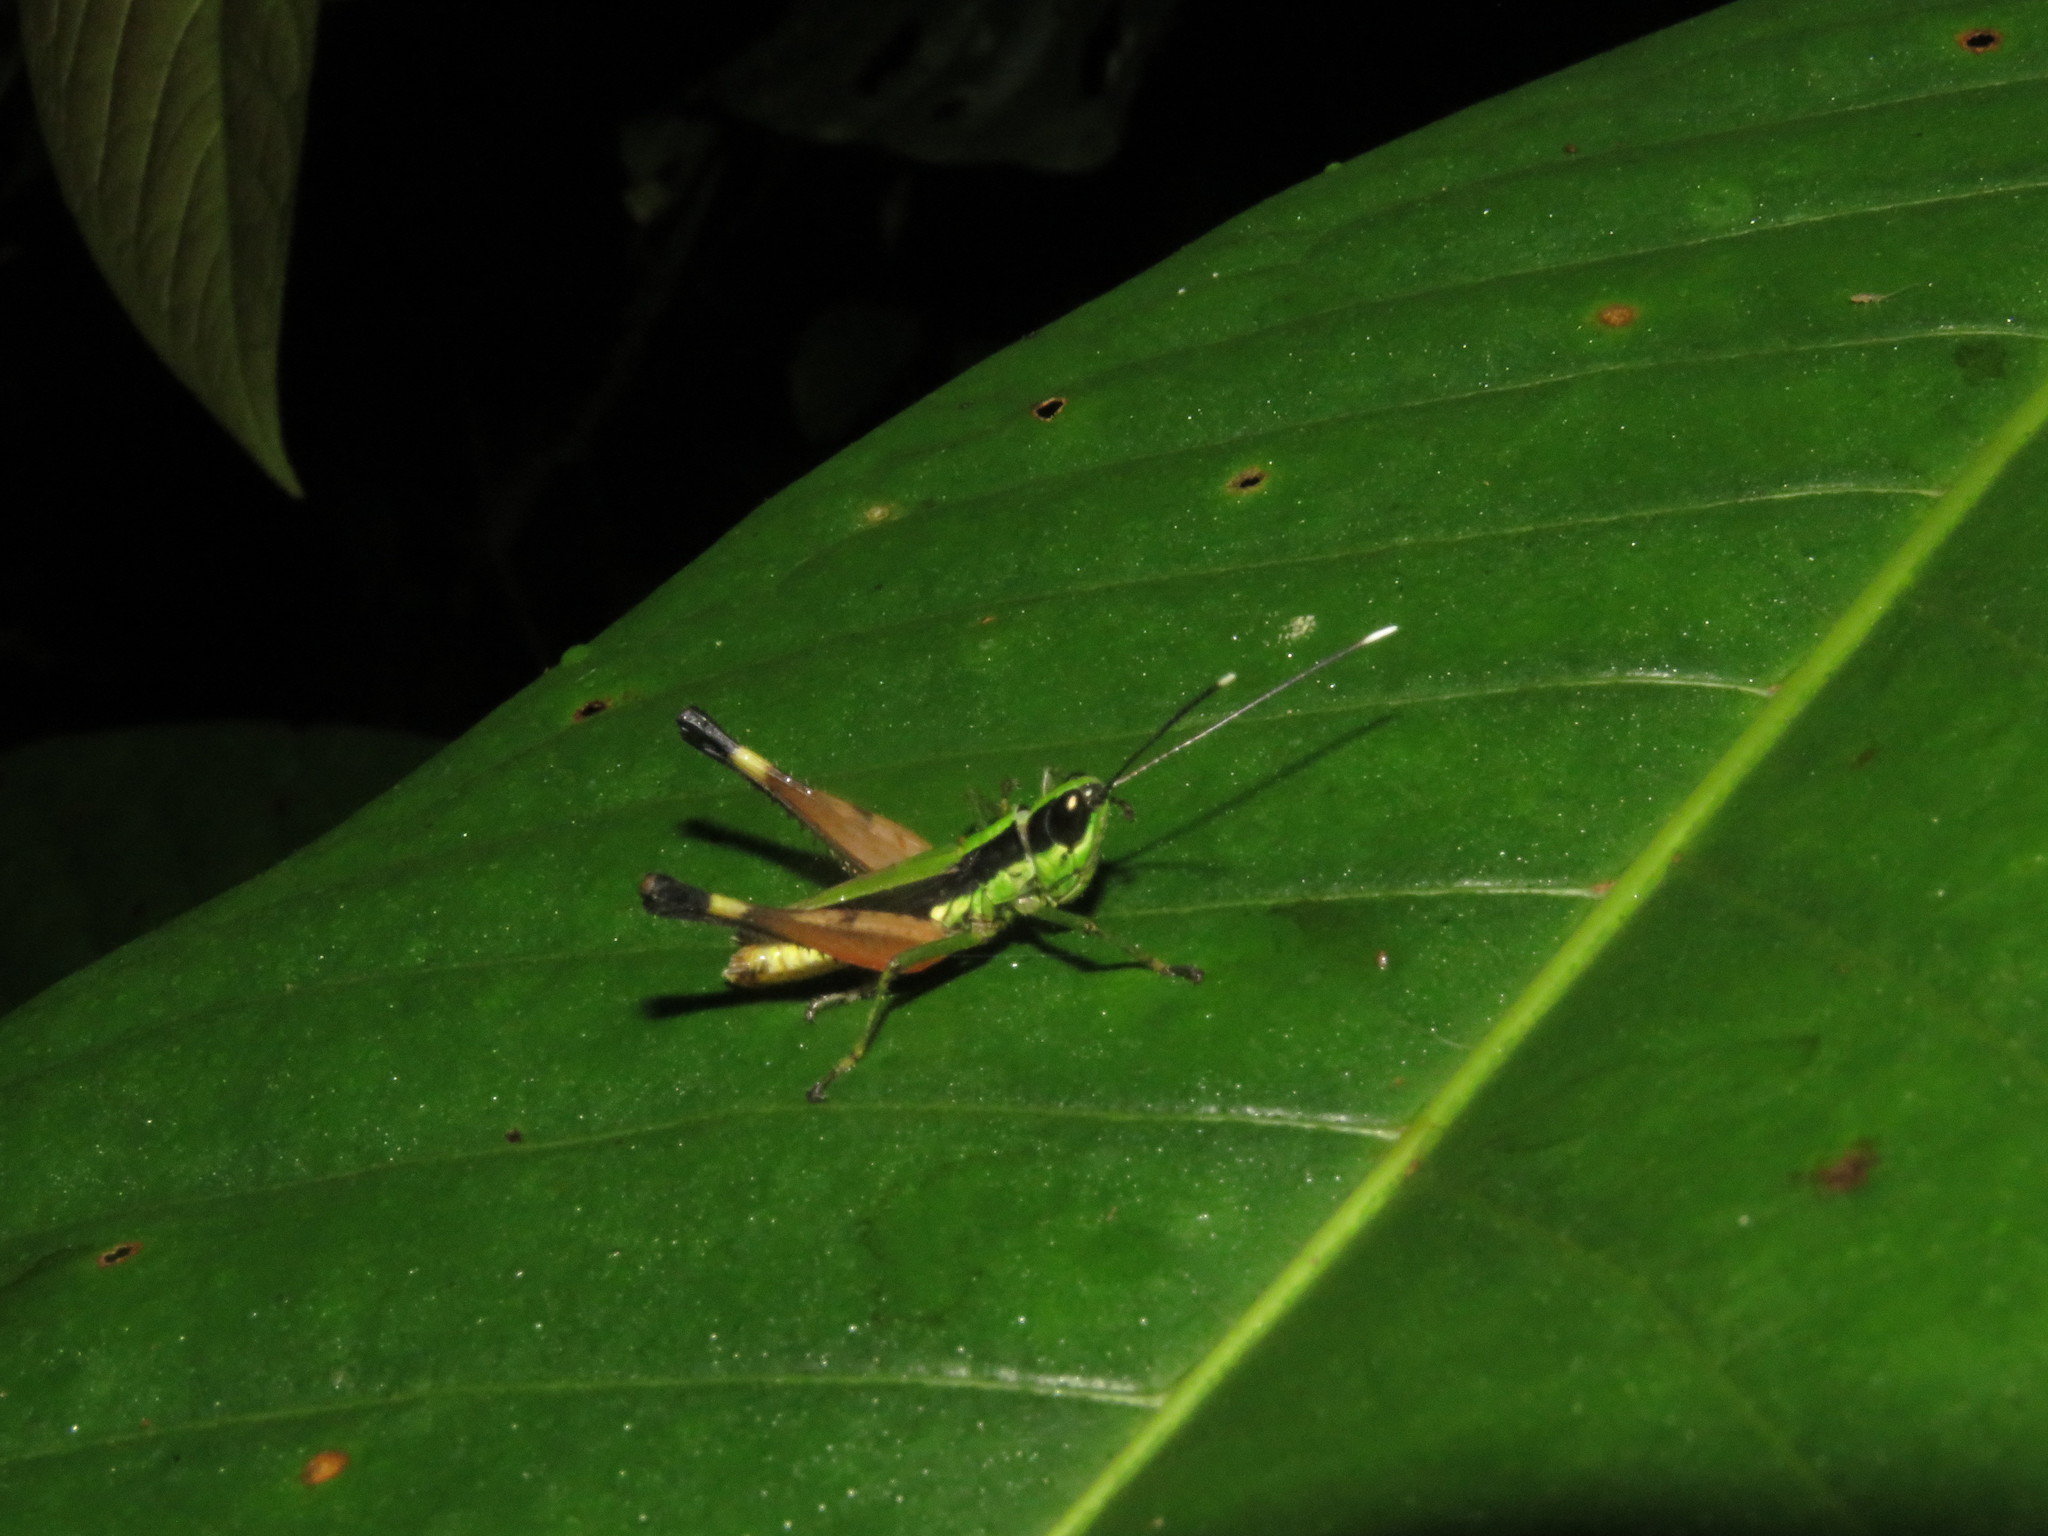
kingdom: Animalia
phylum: Arthropoda
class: Insecta
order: Orthoptera
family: Acrididae
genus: Compsacris
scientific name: Compsacris pulcher
